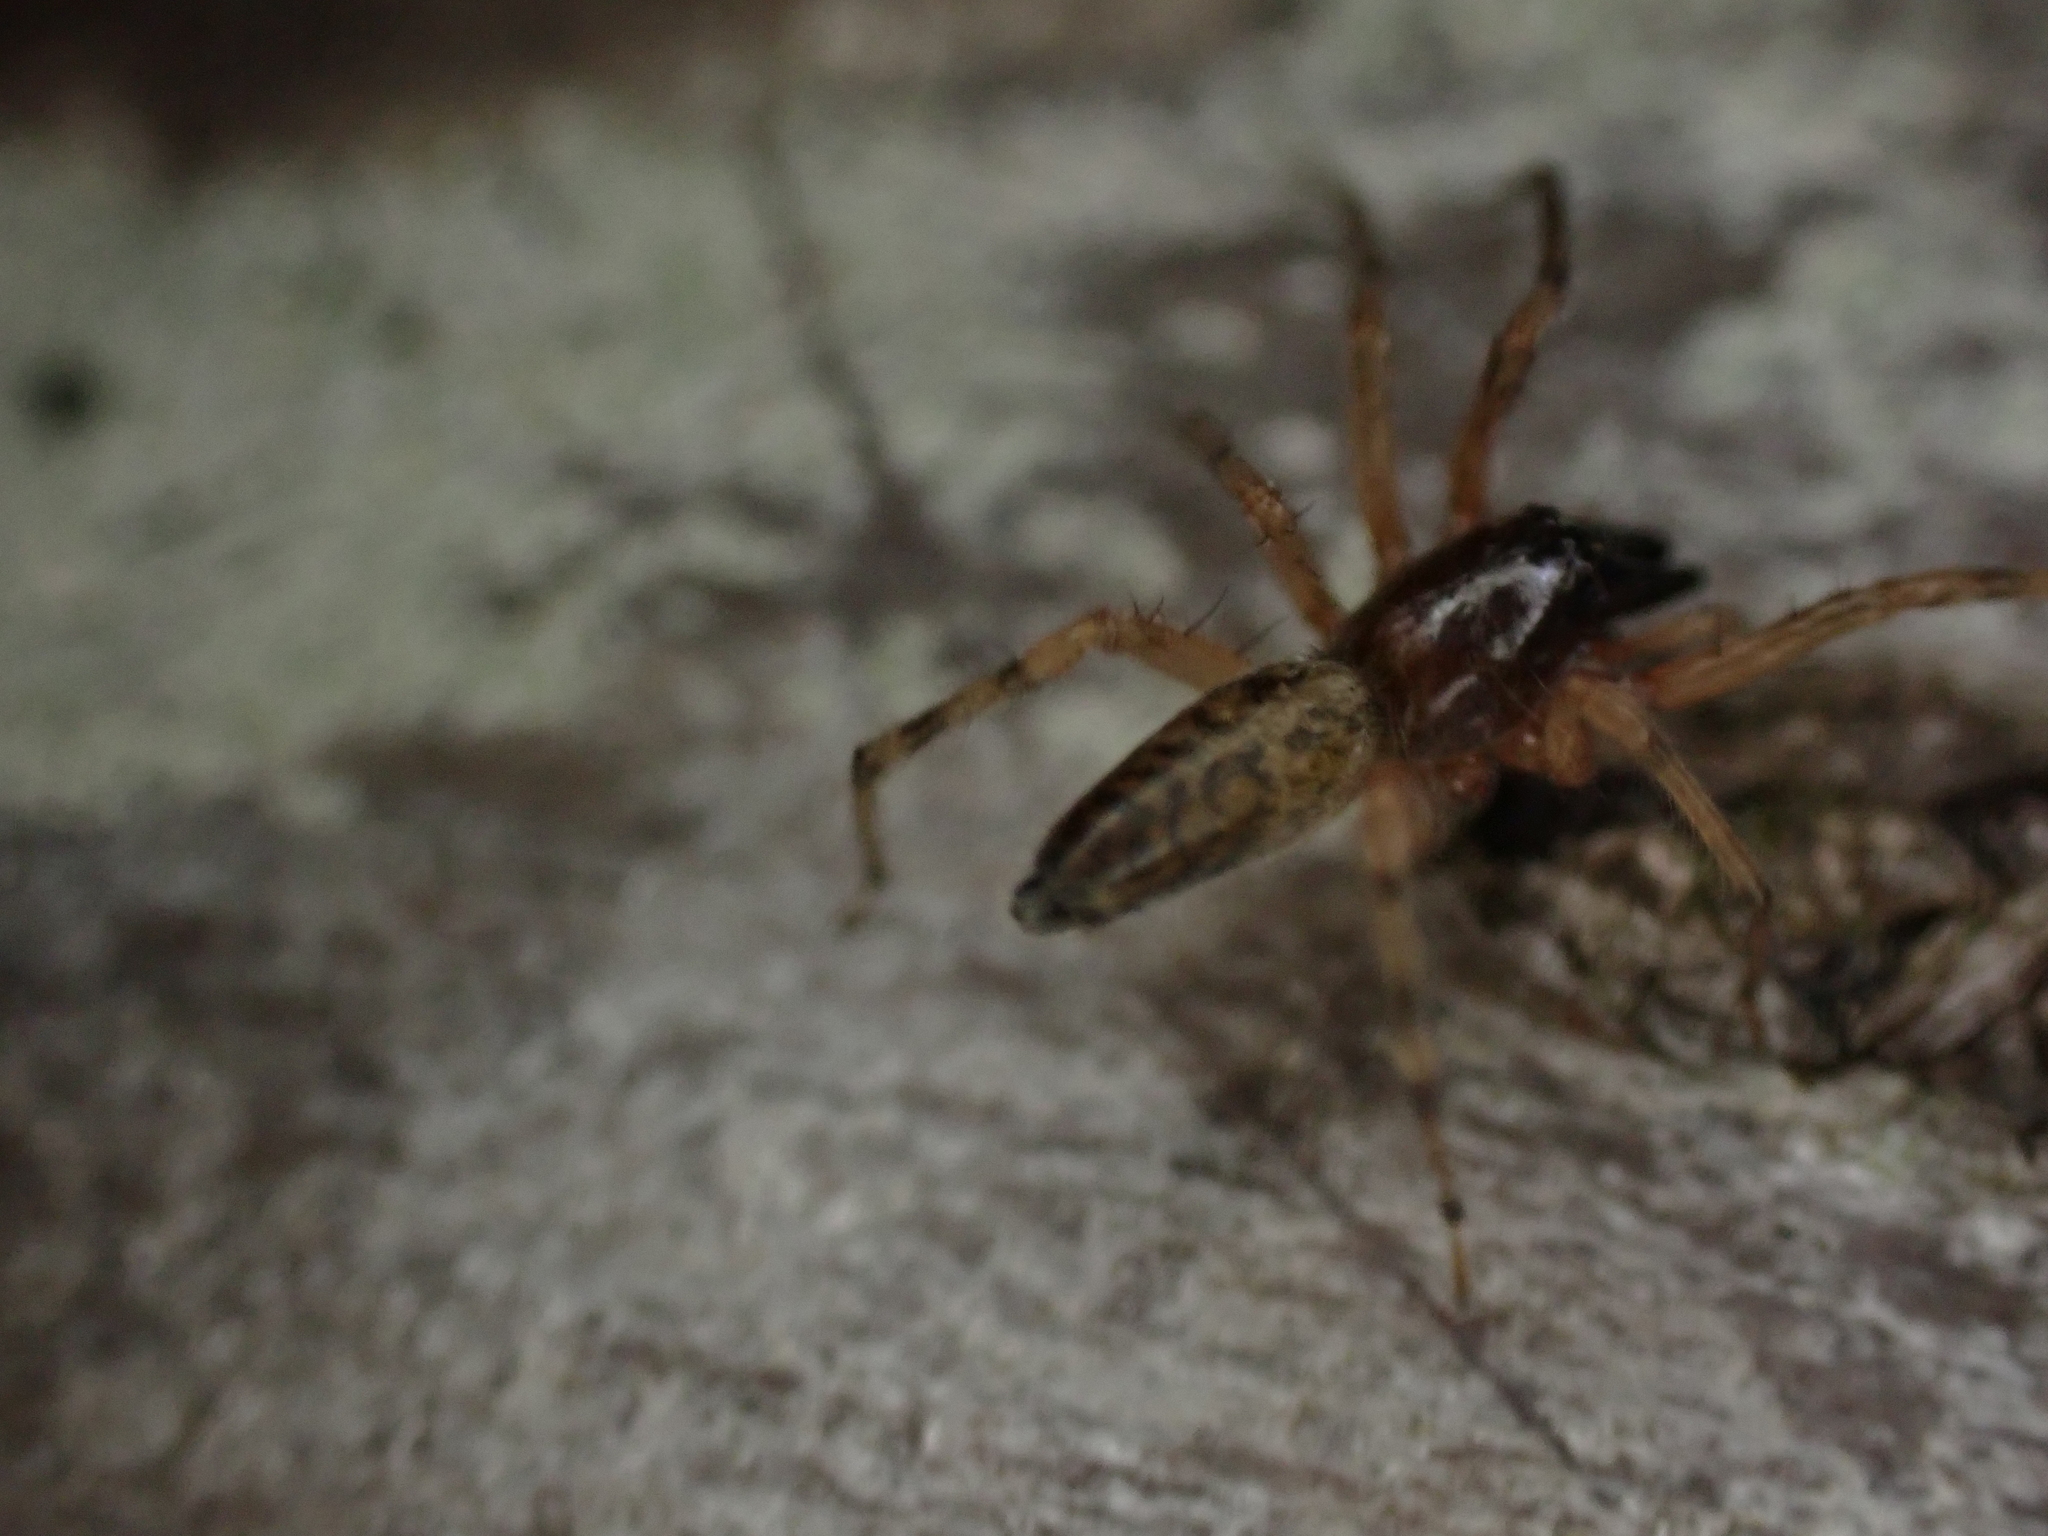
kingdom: Animalia
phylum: Arthropoda
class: Arachnida
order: Araneae
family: Anyphaenidae
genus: Lupettiana
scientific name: Lupettiana mordax
